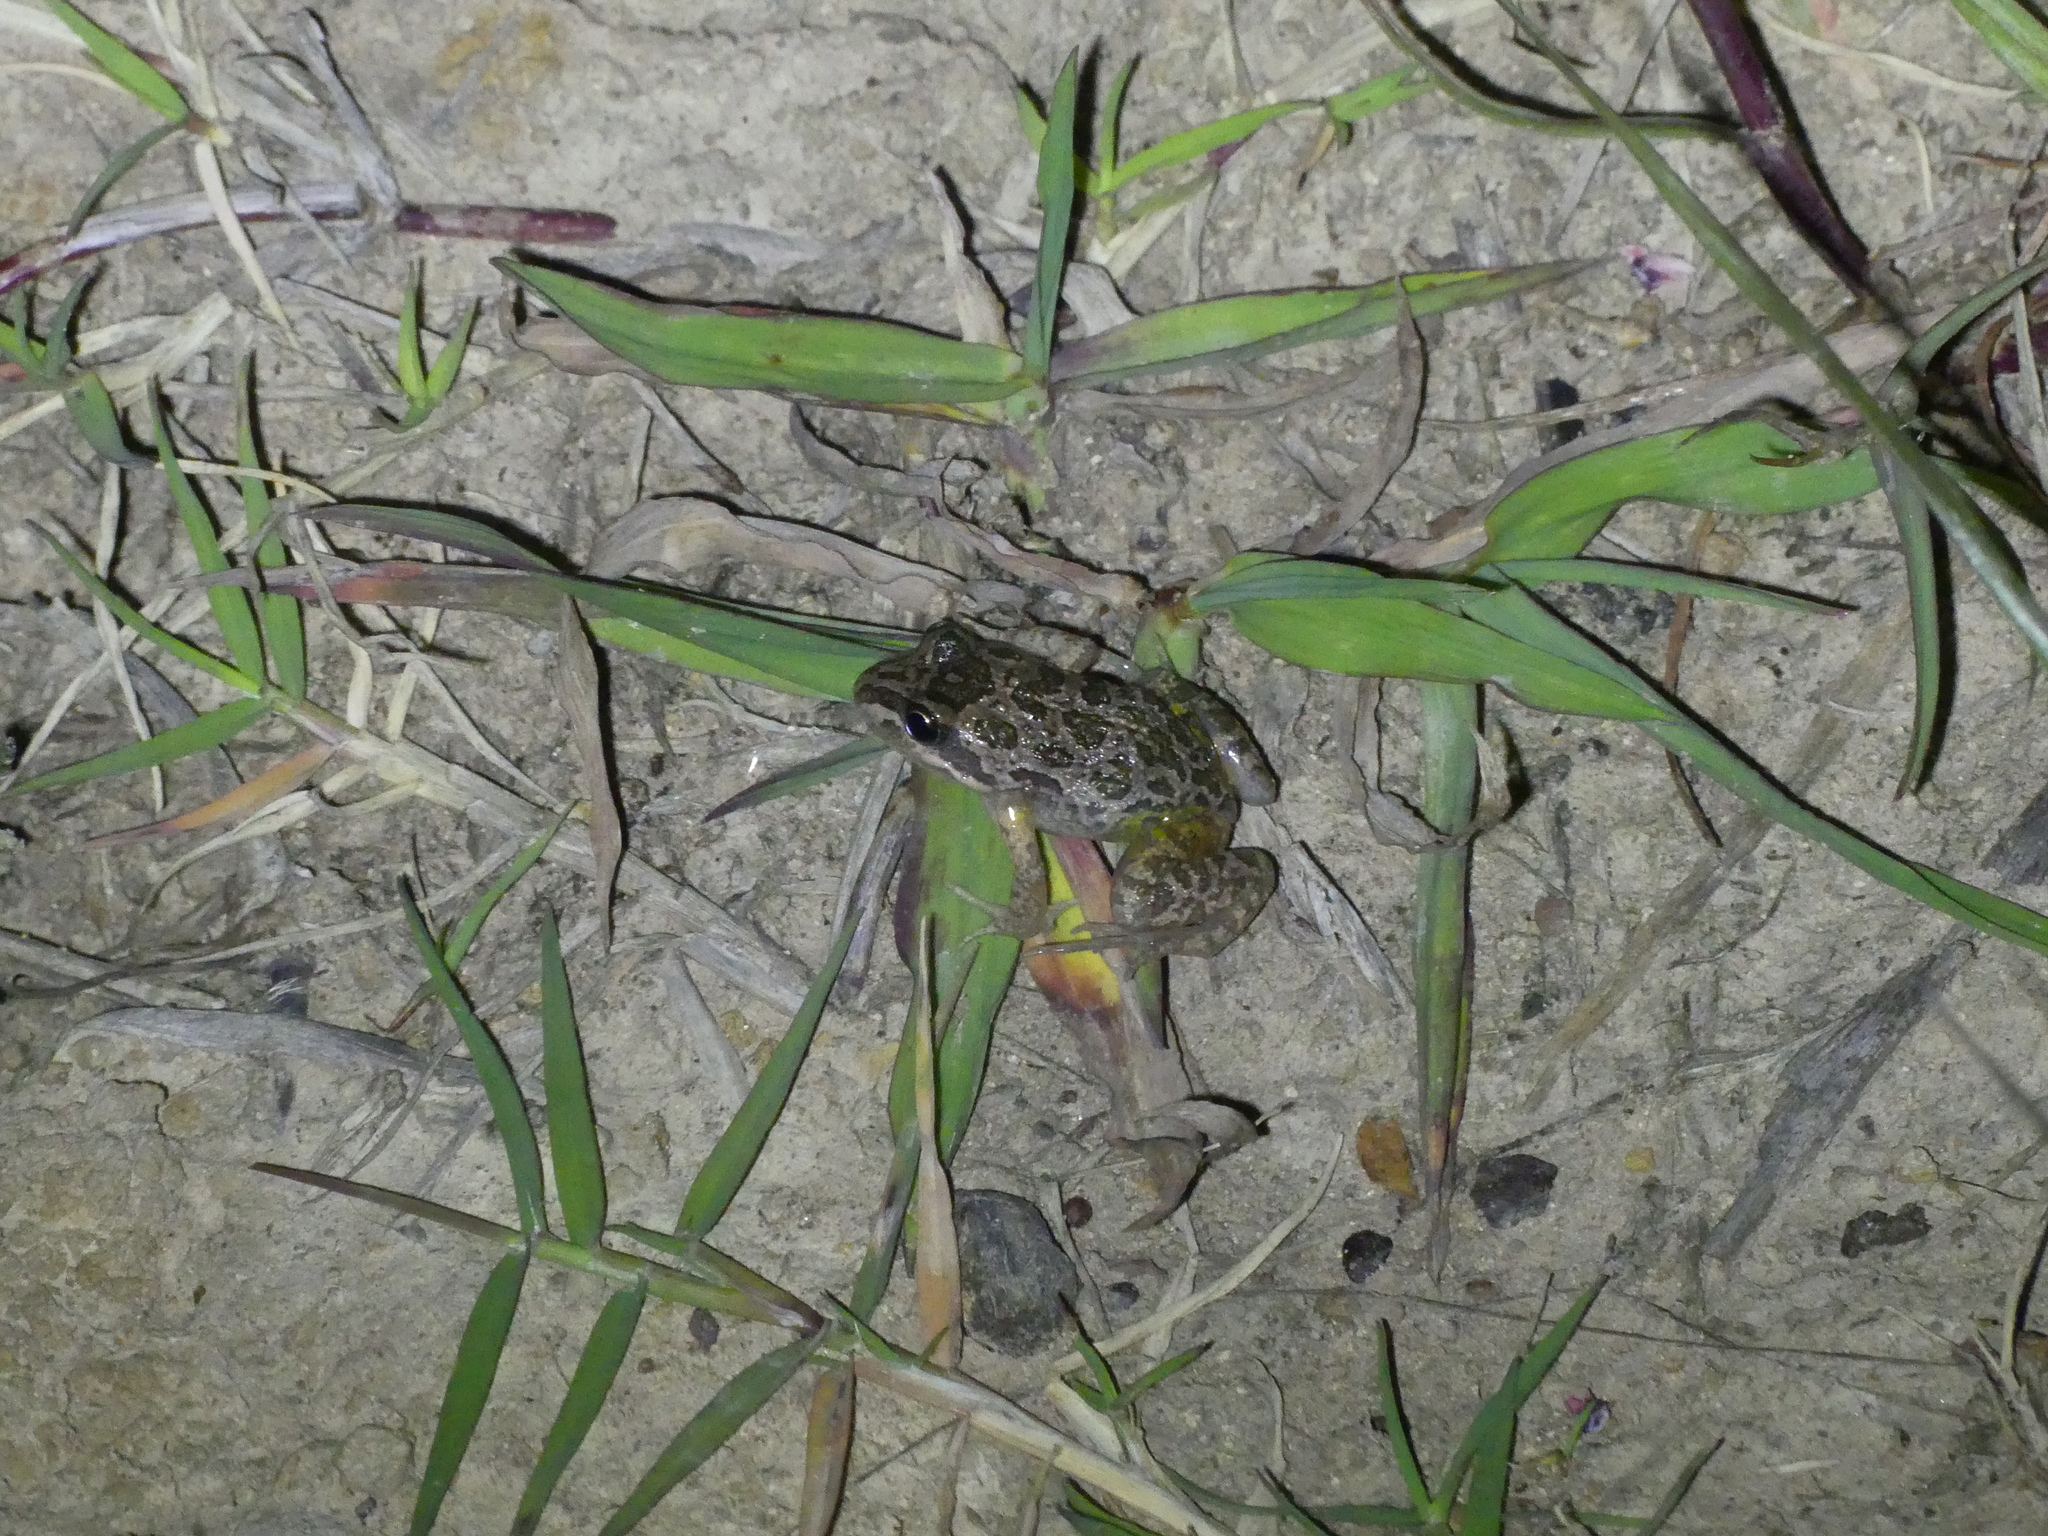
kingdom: Animalia
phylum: Chordata
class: Amphibia
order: Anura
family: Limnodynastidae
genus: Limnodynastes
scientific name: Limnodynastes tasmaniensis
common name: Spotted marsh frog
